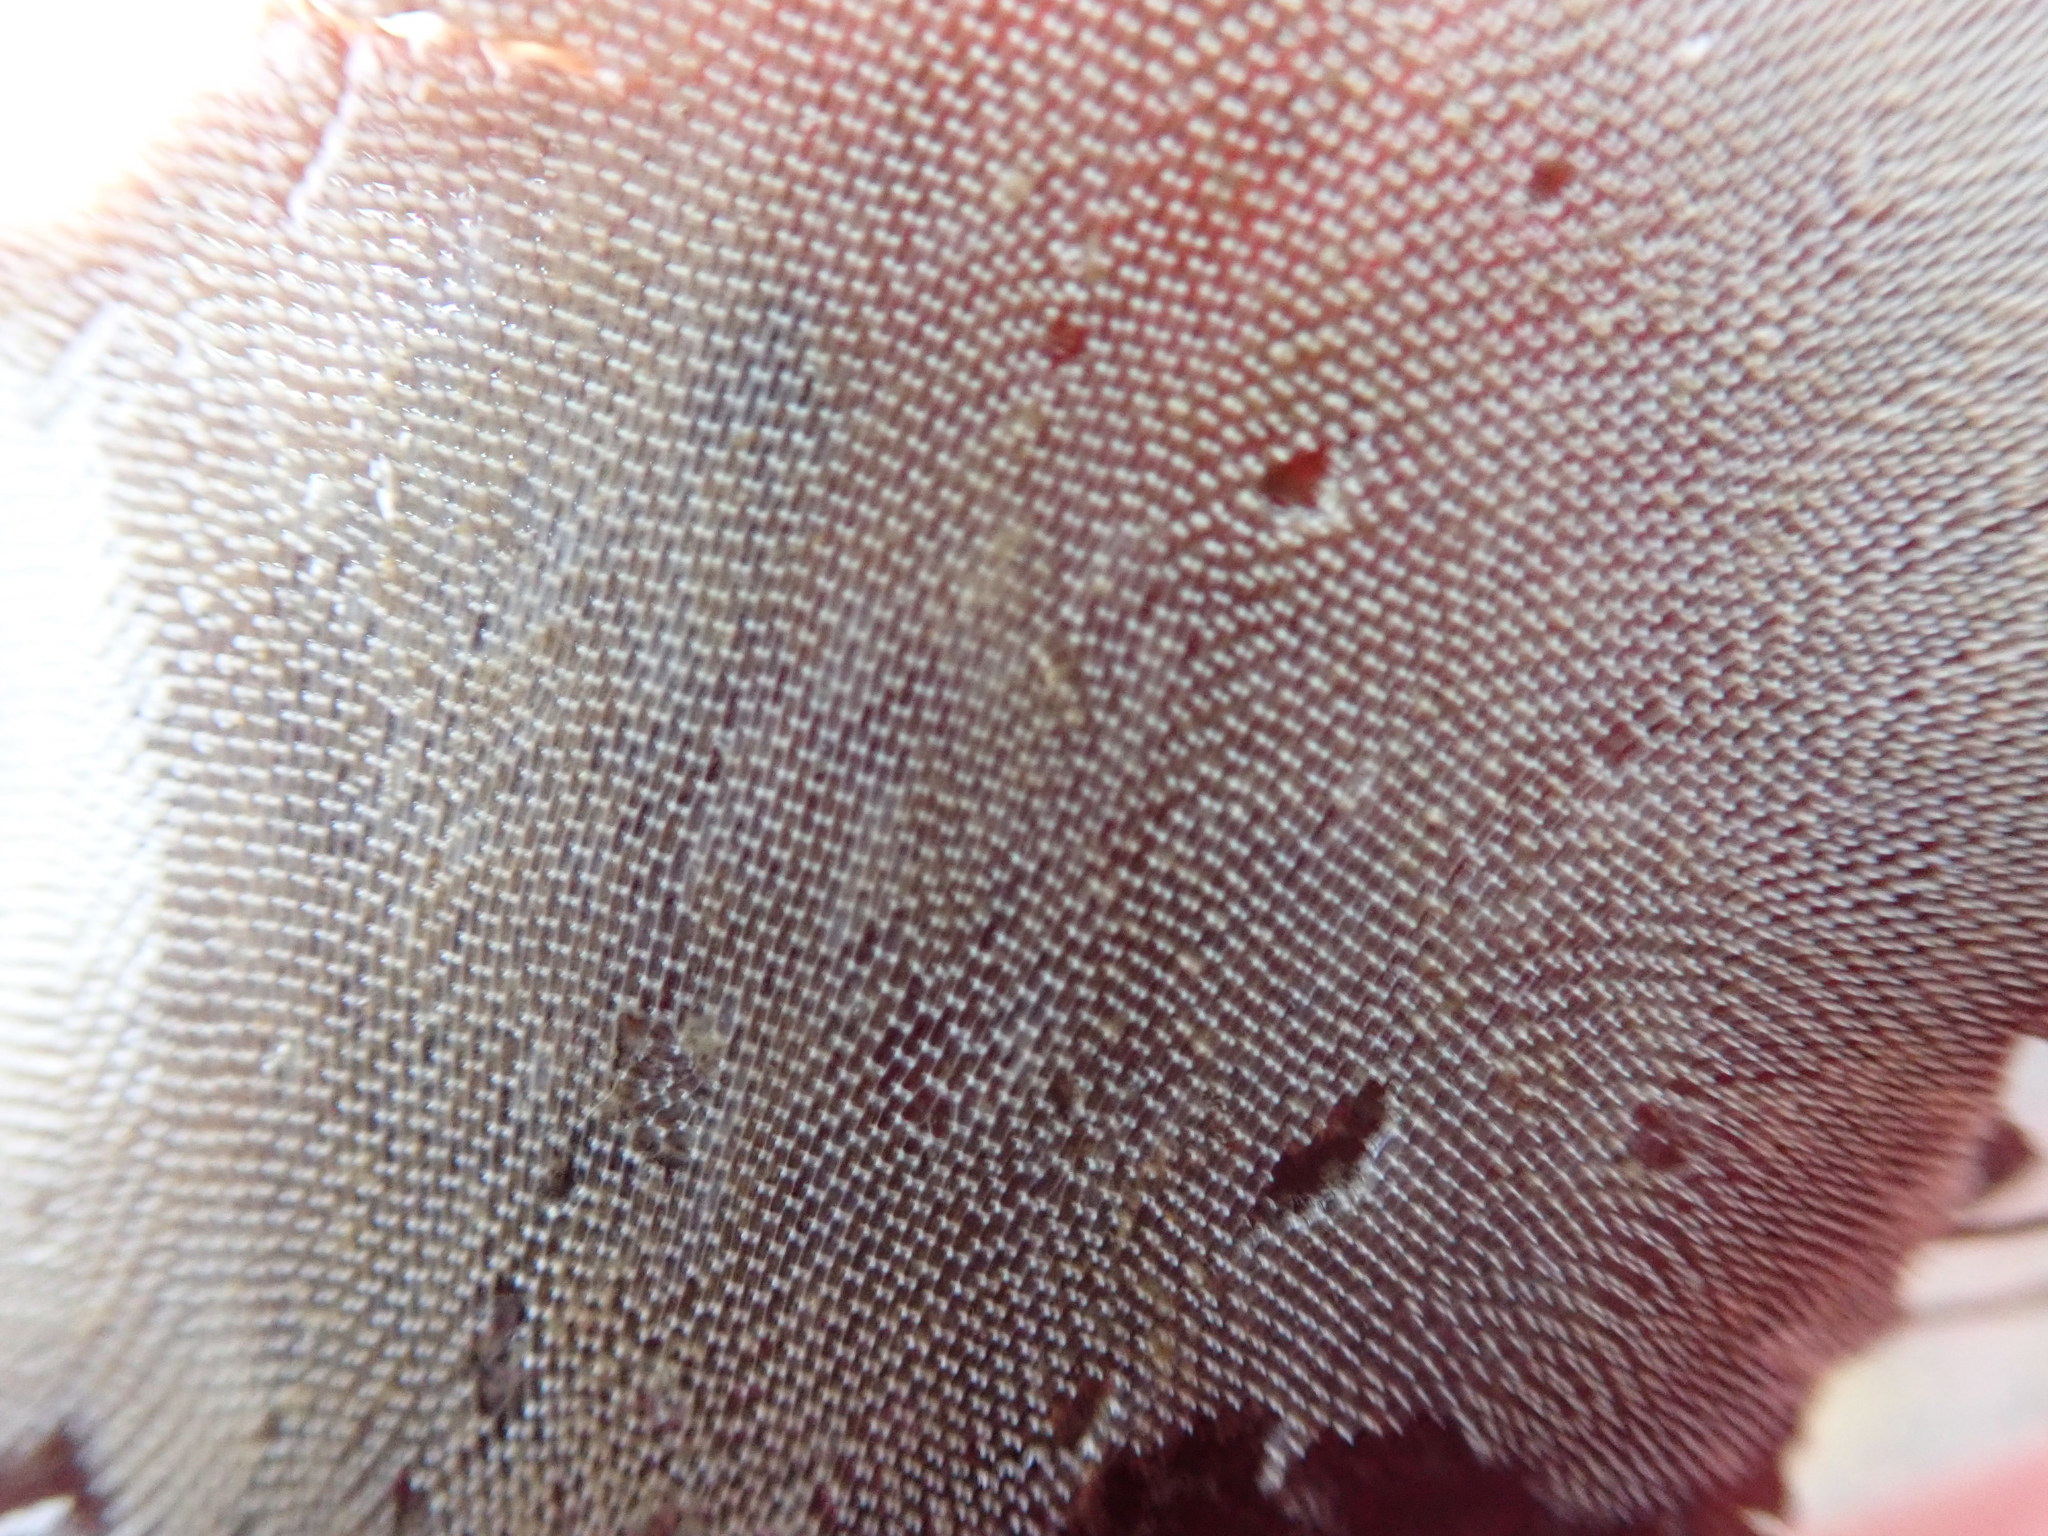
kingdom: Animalia
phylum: Bryozoa
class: Gymnolaemata
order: Cheilostomatida
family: Membraniporidae
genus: Membranipora
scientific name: Membranipora membranacea
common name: Sea mat
